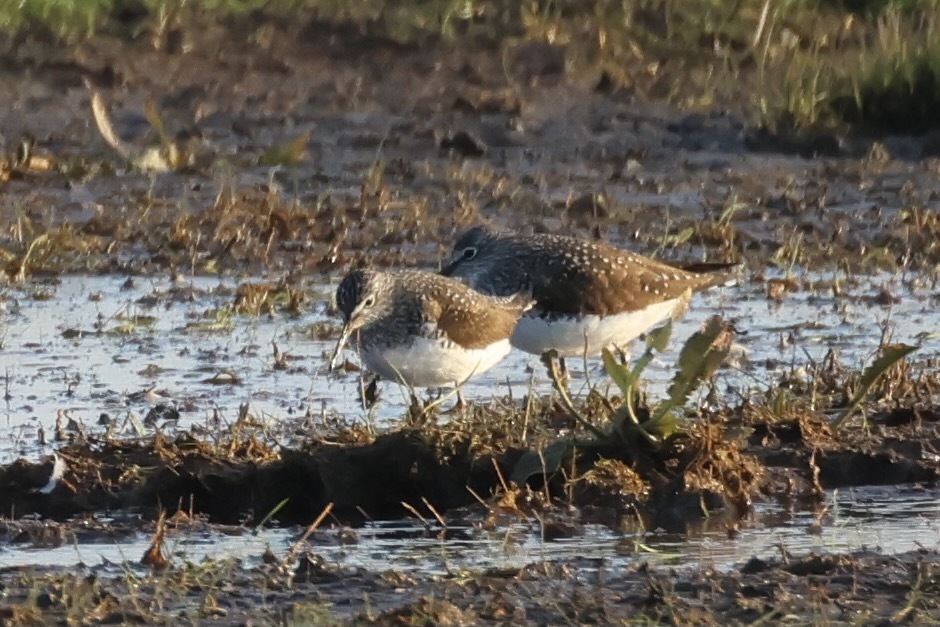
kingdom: Animalia
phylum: Chordata
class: Aves
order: Charadriiformes
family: Scolopacidae
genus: Tringa
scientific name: Tringa ochropus
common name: Green sandpiper
